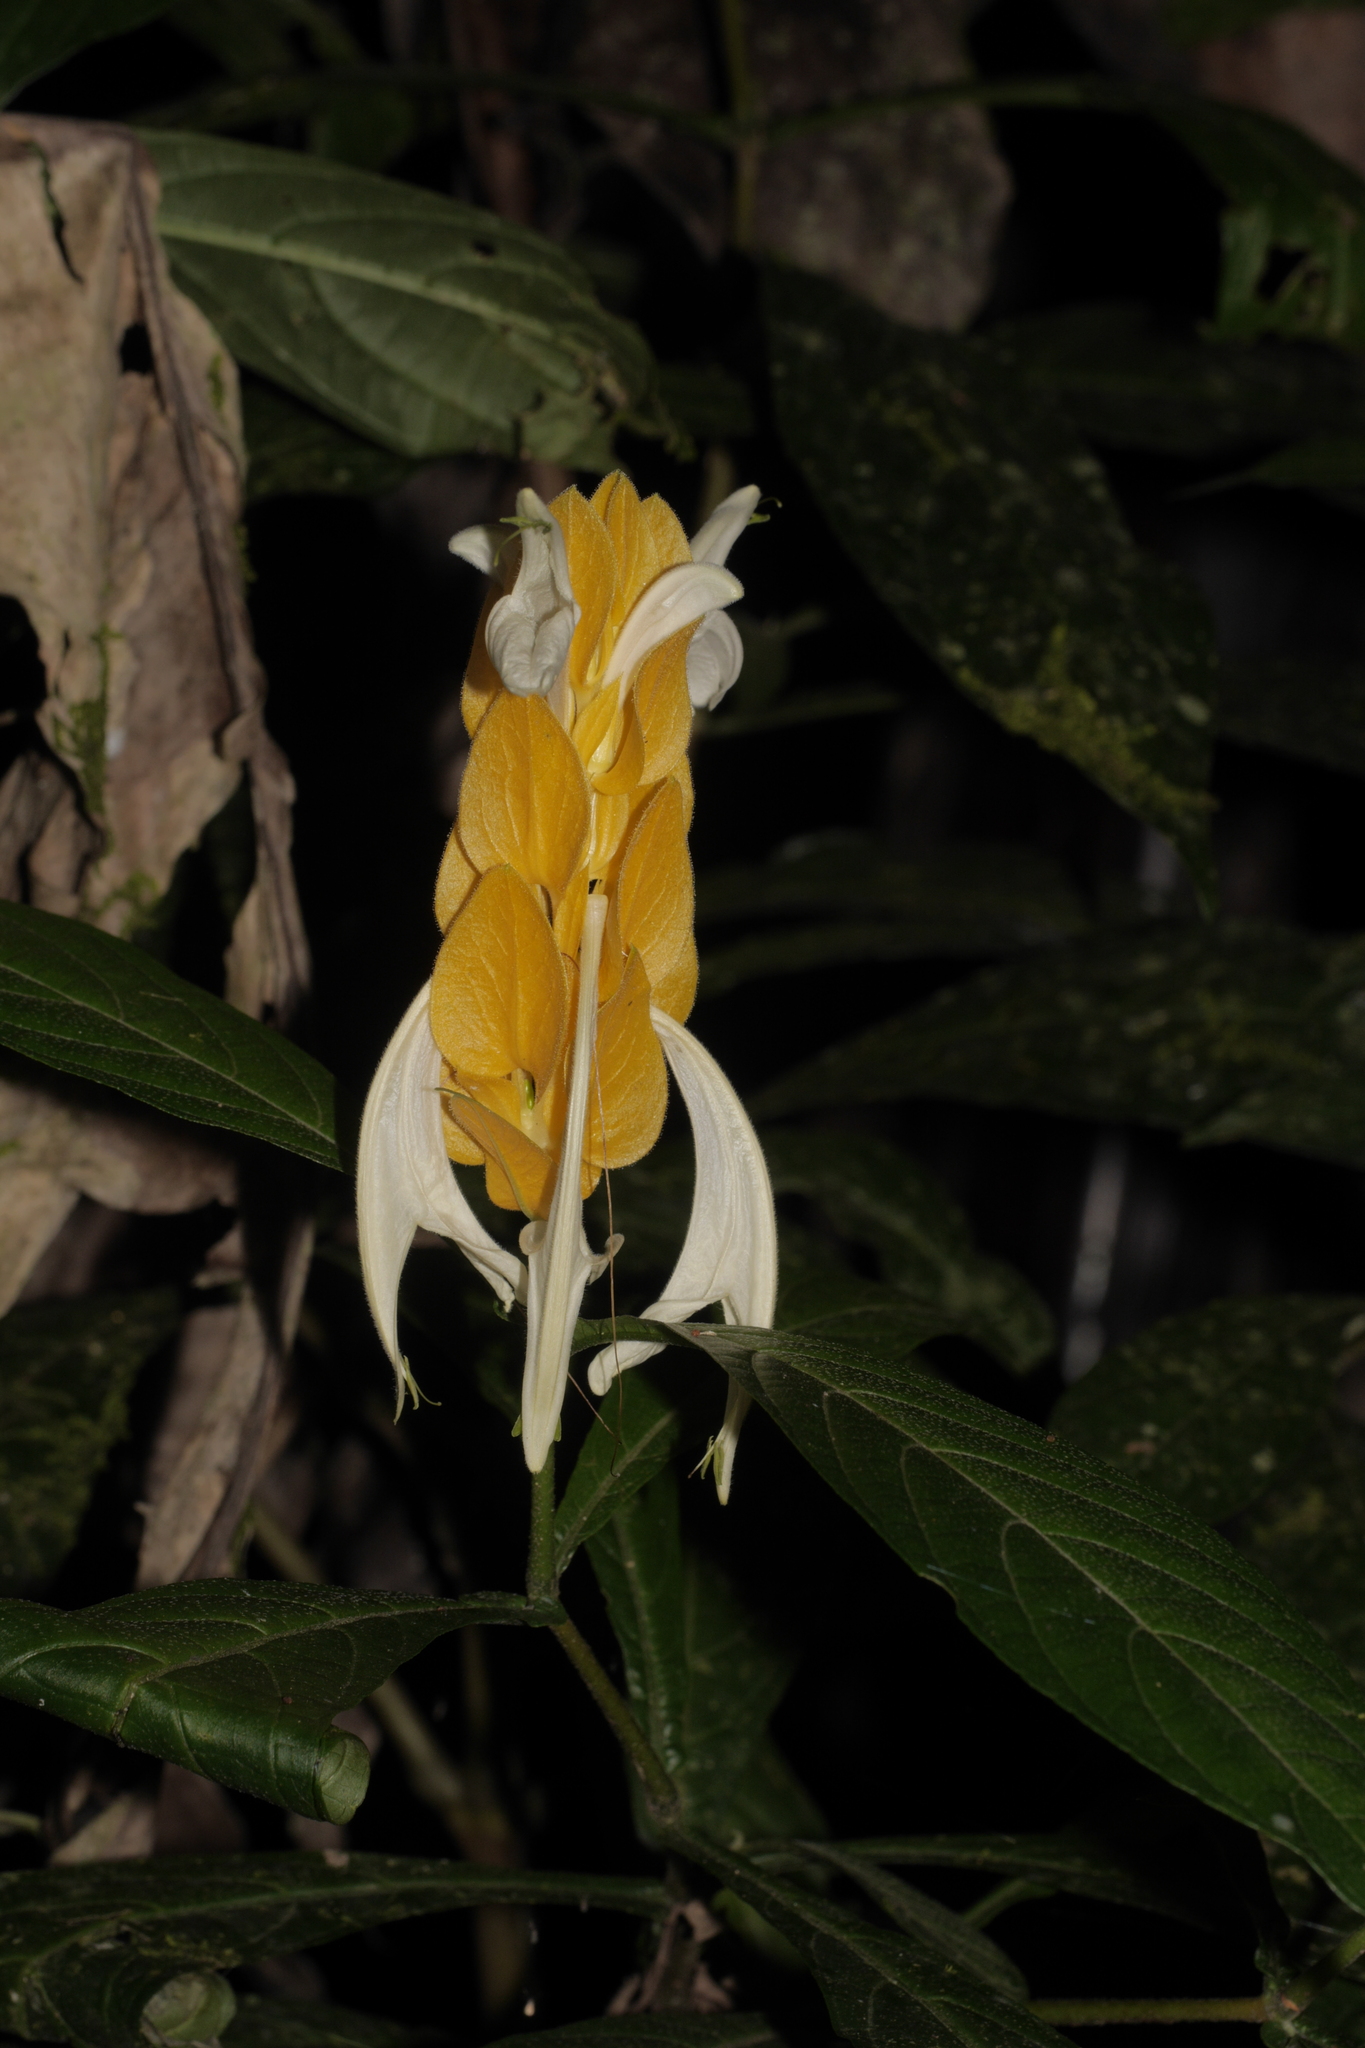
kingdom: Plantae
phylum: Tracheophyta
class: Magnoliopsida
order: Lamiales
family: Acanthaceae
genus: Pachystachys
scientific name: Pachystachys lutea
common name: Golden shrimp-plant
